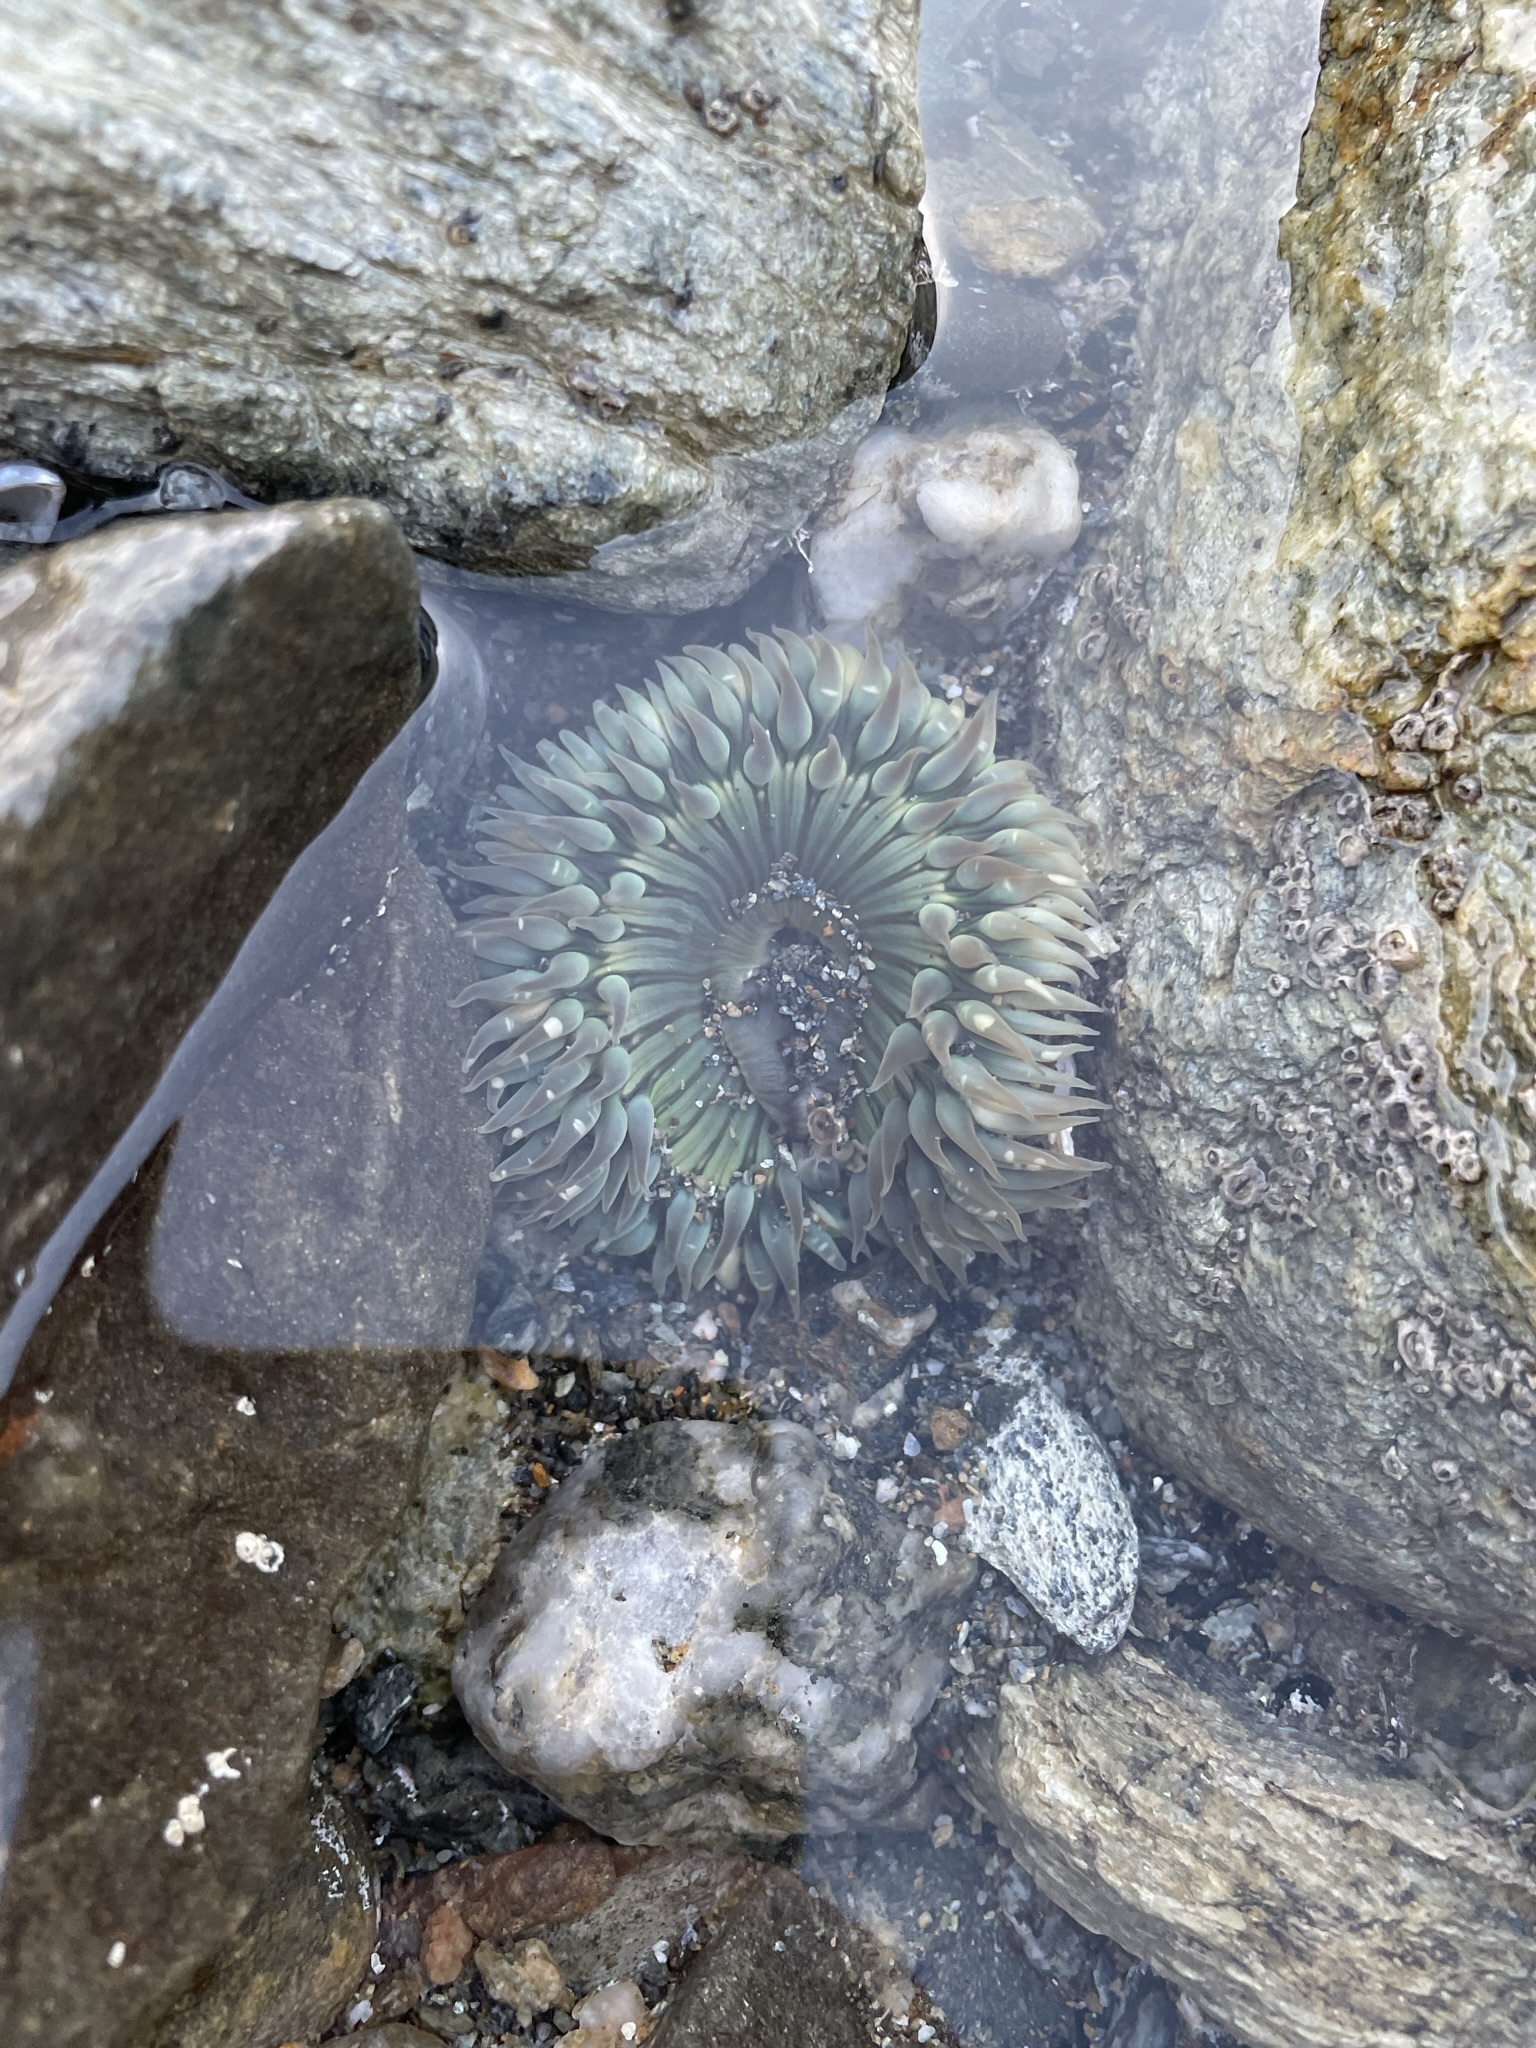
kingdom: Animalia
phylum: Cnidaria
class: Anthozoa
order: Actiniaria
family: Actiniidae
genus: Anthopleura
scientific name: Anthopleura sola
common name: Sun anemone
